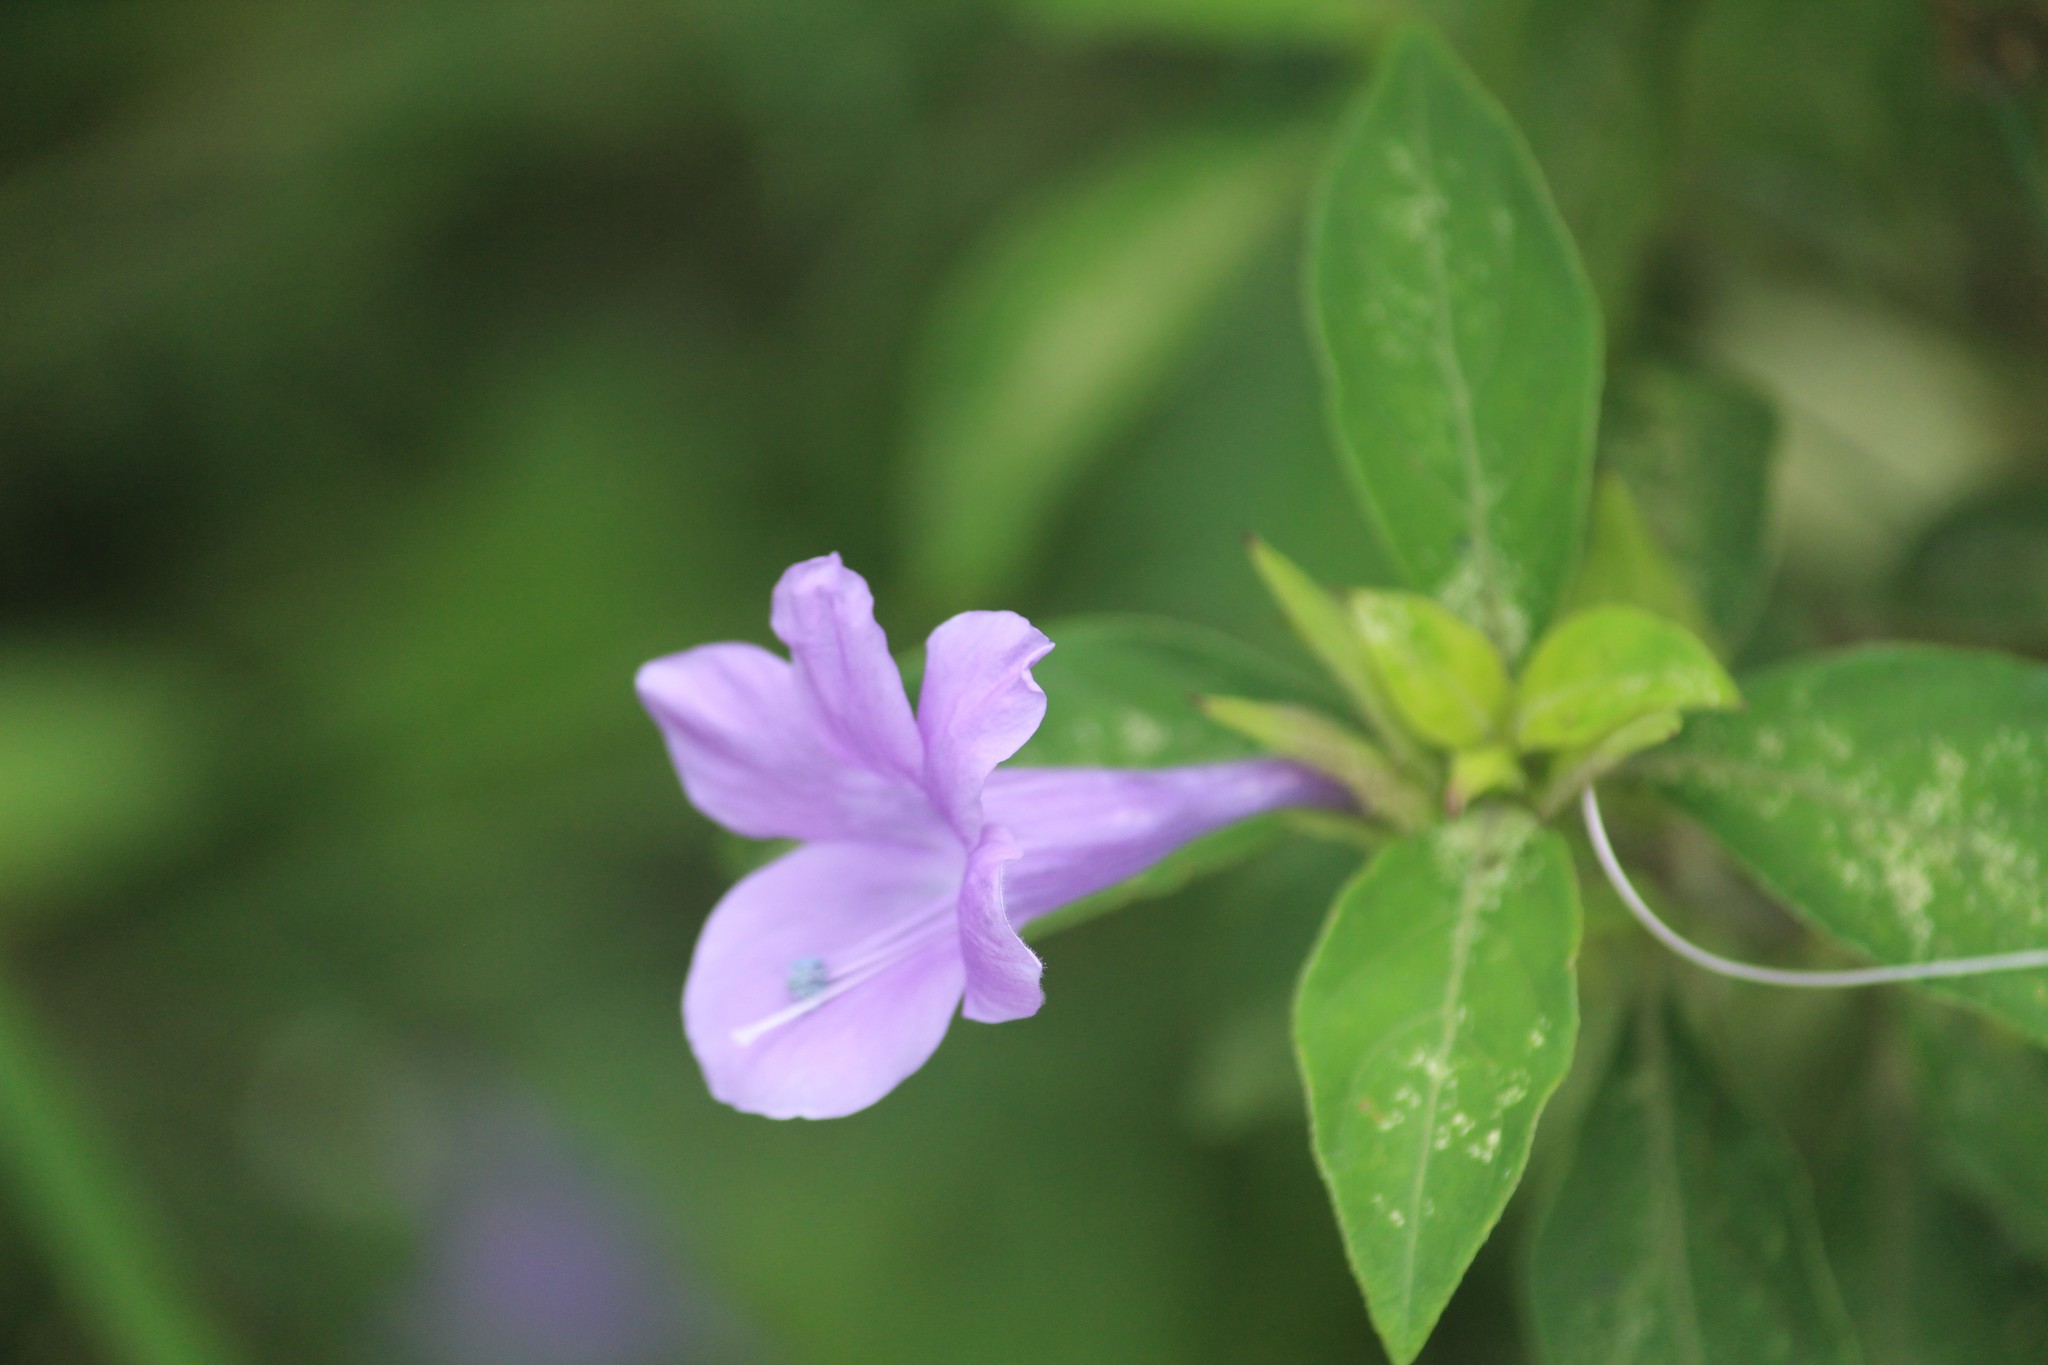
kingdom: Plantae
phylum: Tracheophyta
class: Magnoliopsida
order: Lamiales
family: Acanthaceae
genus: Barleria
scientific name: Barleria cristata
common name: Crested philippine violet
